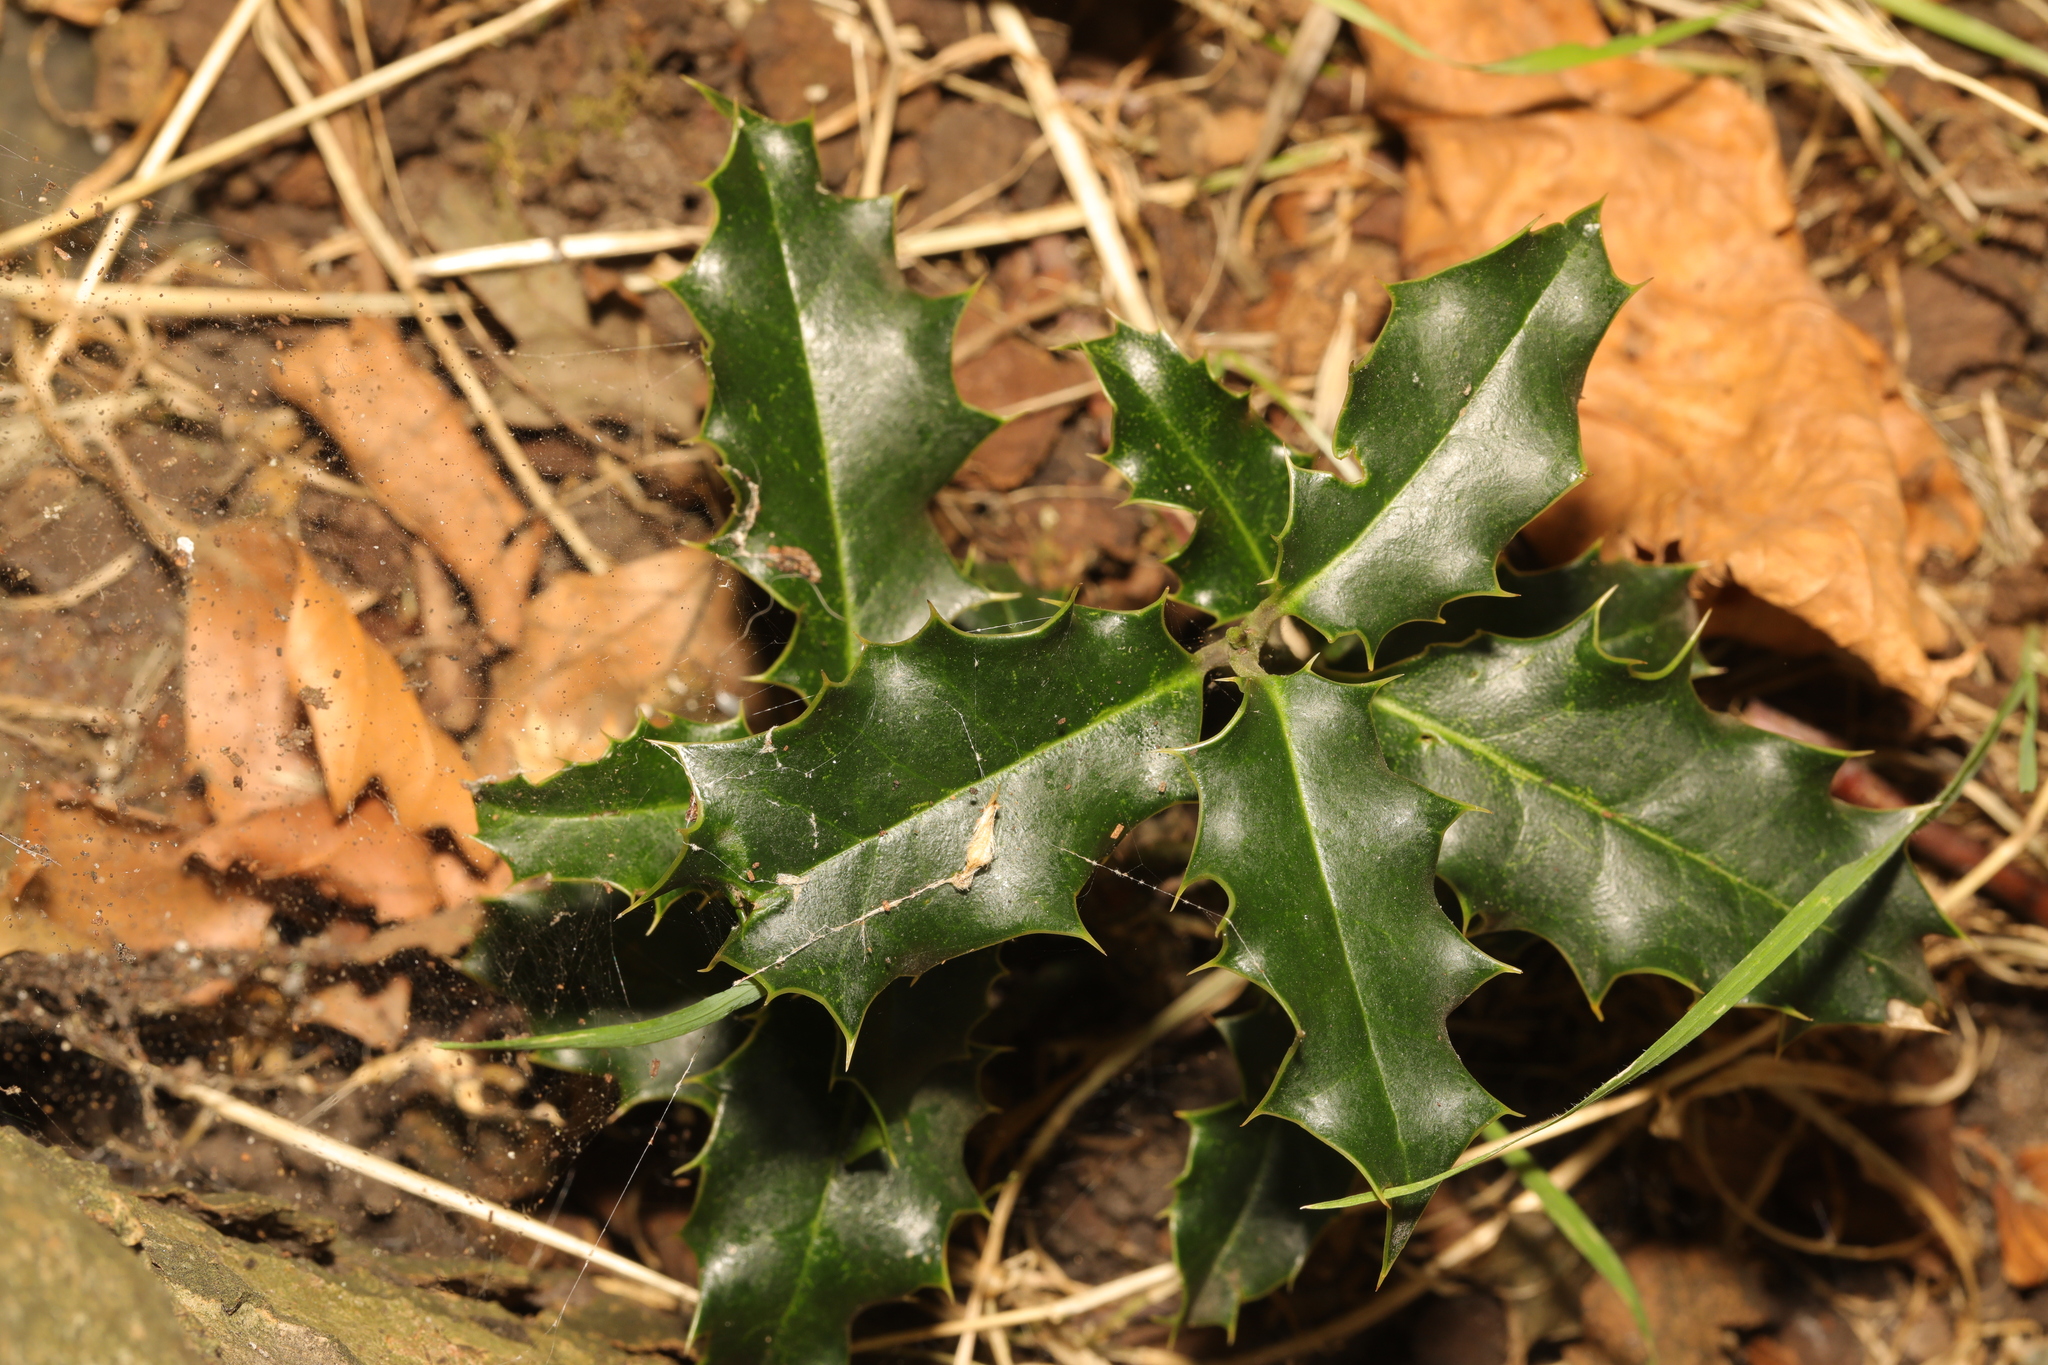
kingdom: Plantae
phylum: Tracheophyta
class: Magnoliopsida
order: Aquifoliales
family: Aquifoliaceae
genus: Ilex
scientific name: Ilex aquifolium
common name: English holly
